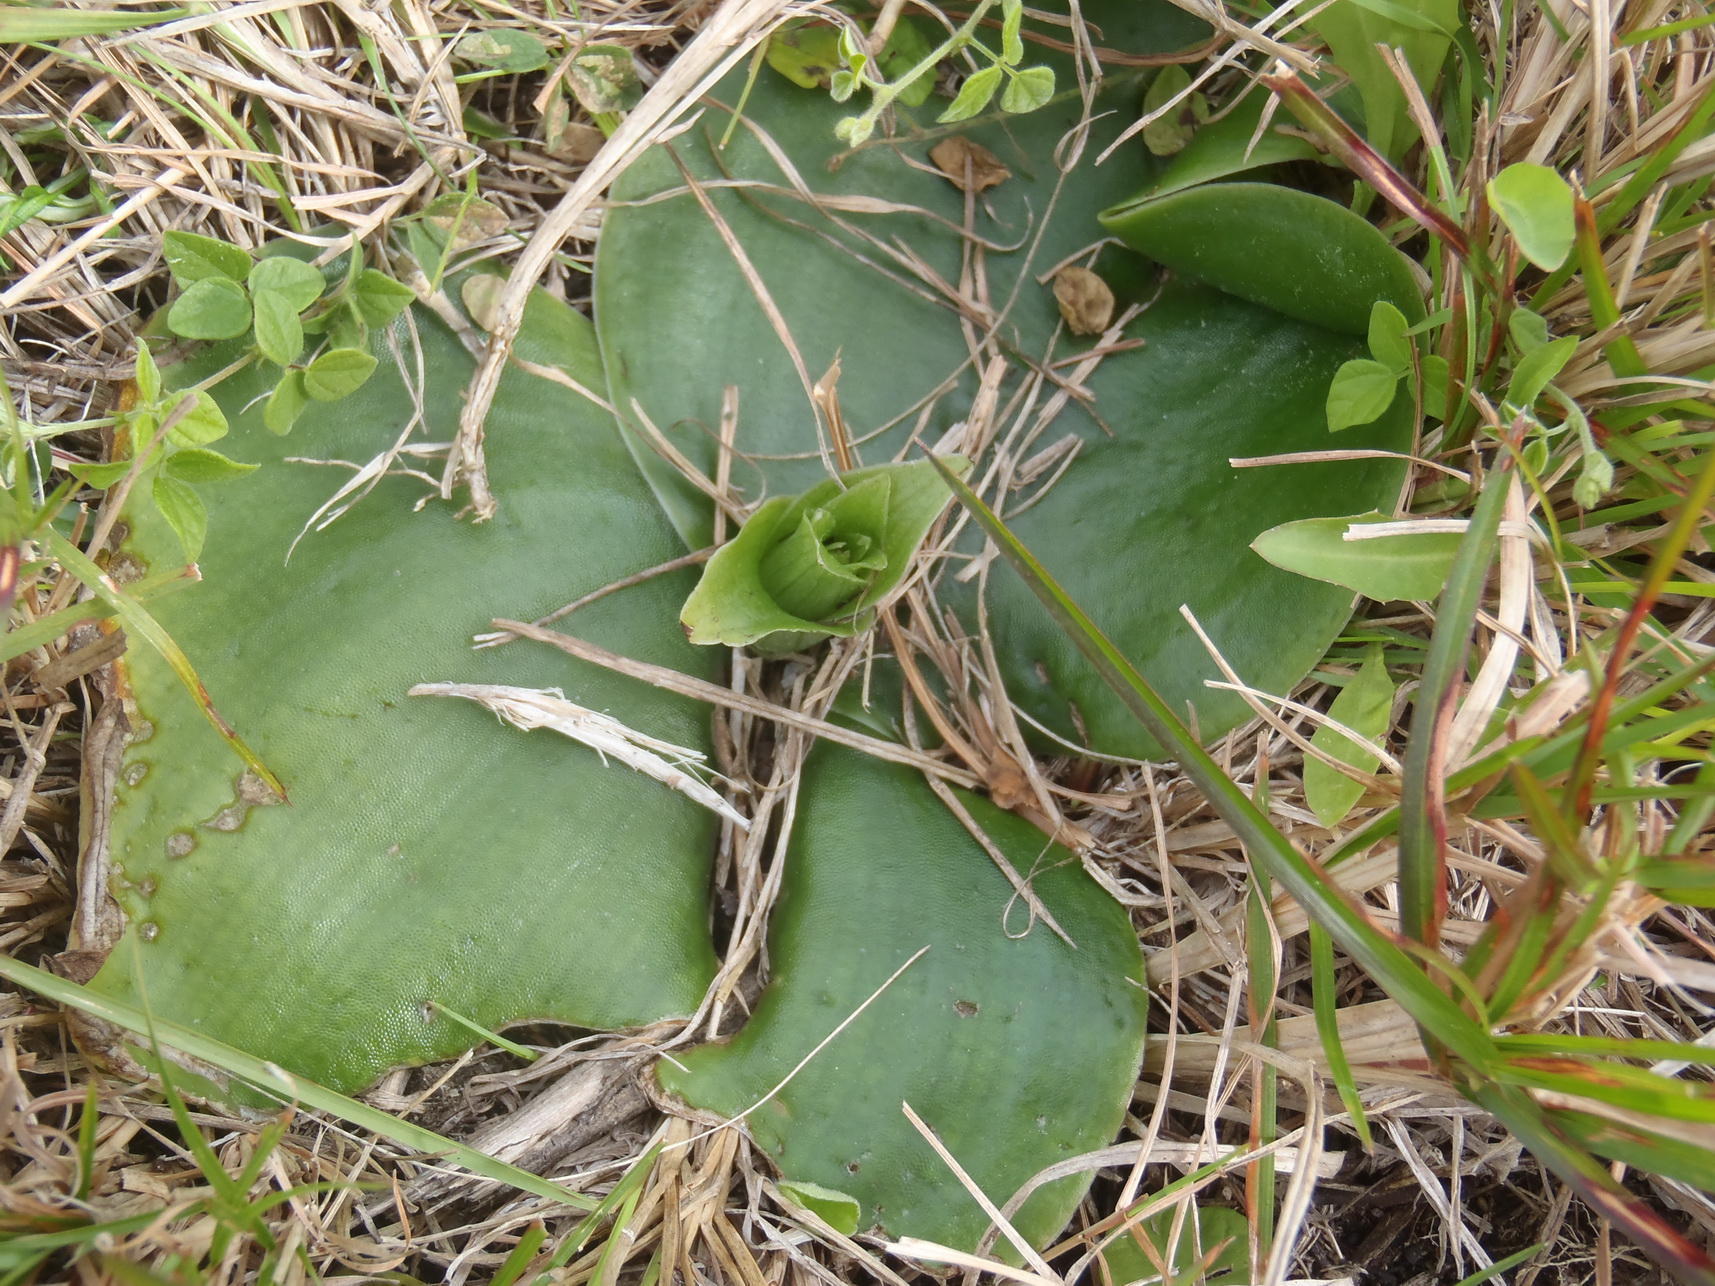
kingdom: Plantae
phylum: Tracheophyta
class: Liliopsida
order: Asparagales
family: Orchidaceae
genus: Satyrium
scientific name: Satyrium princeps
